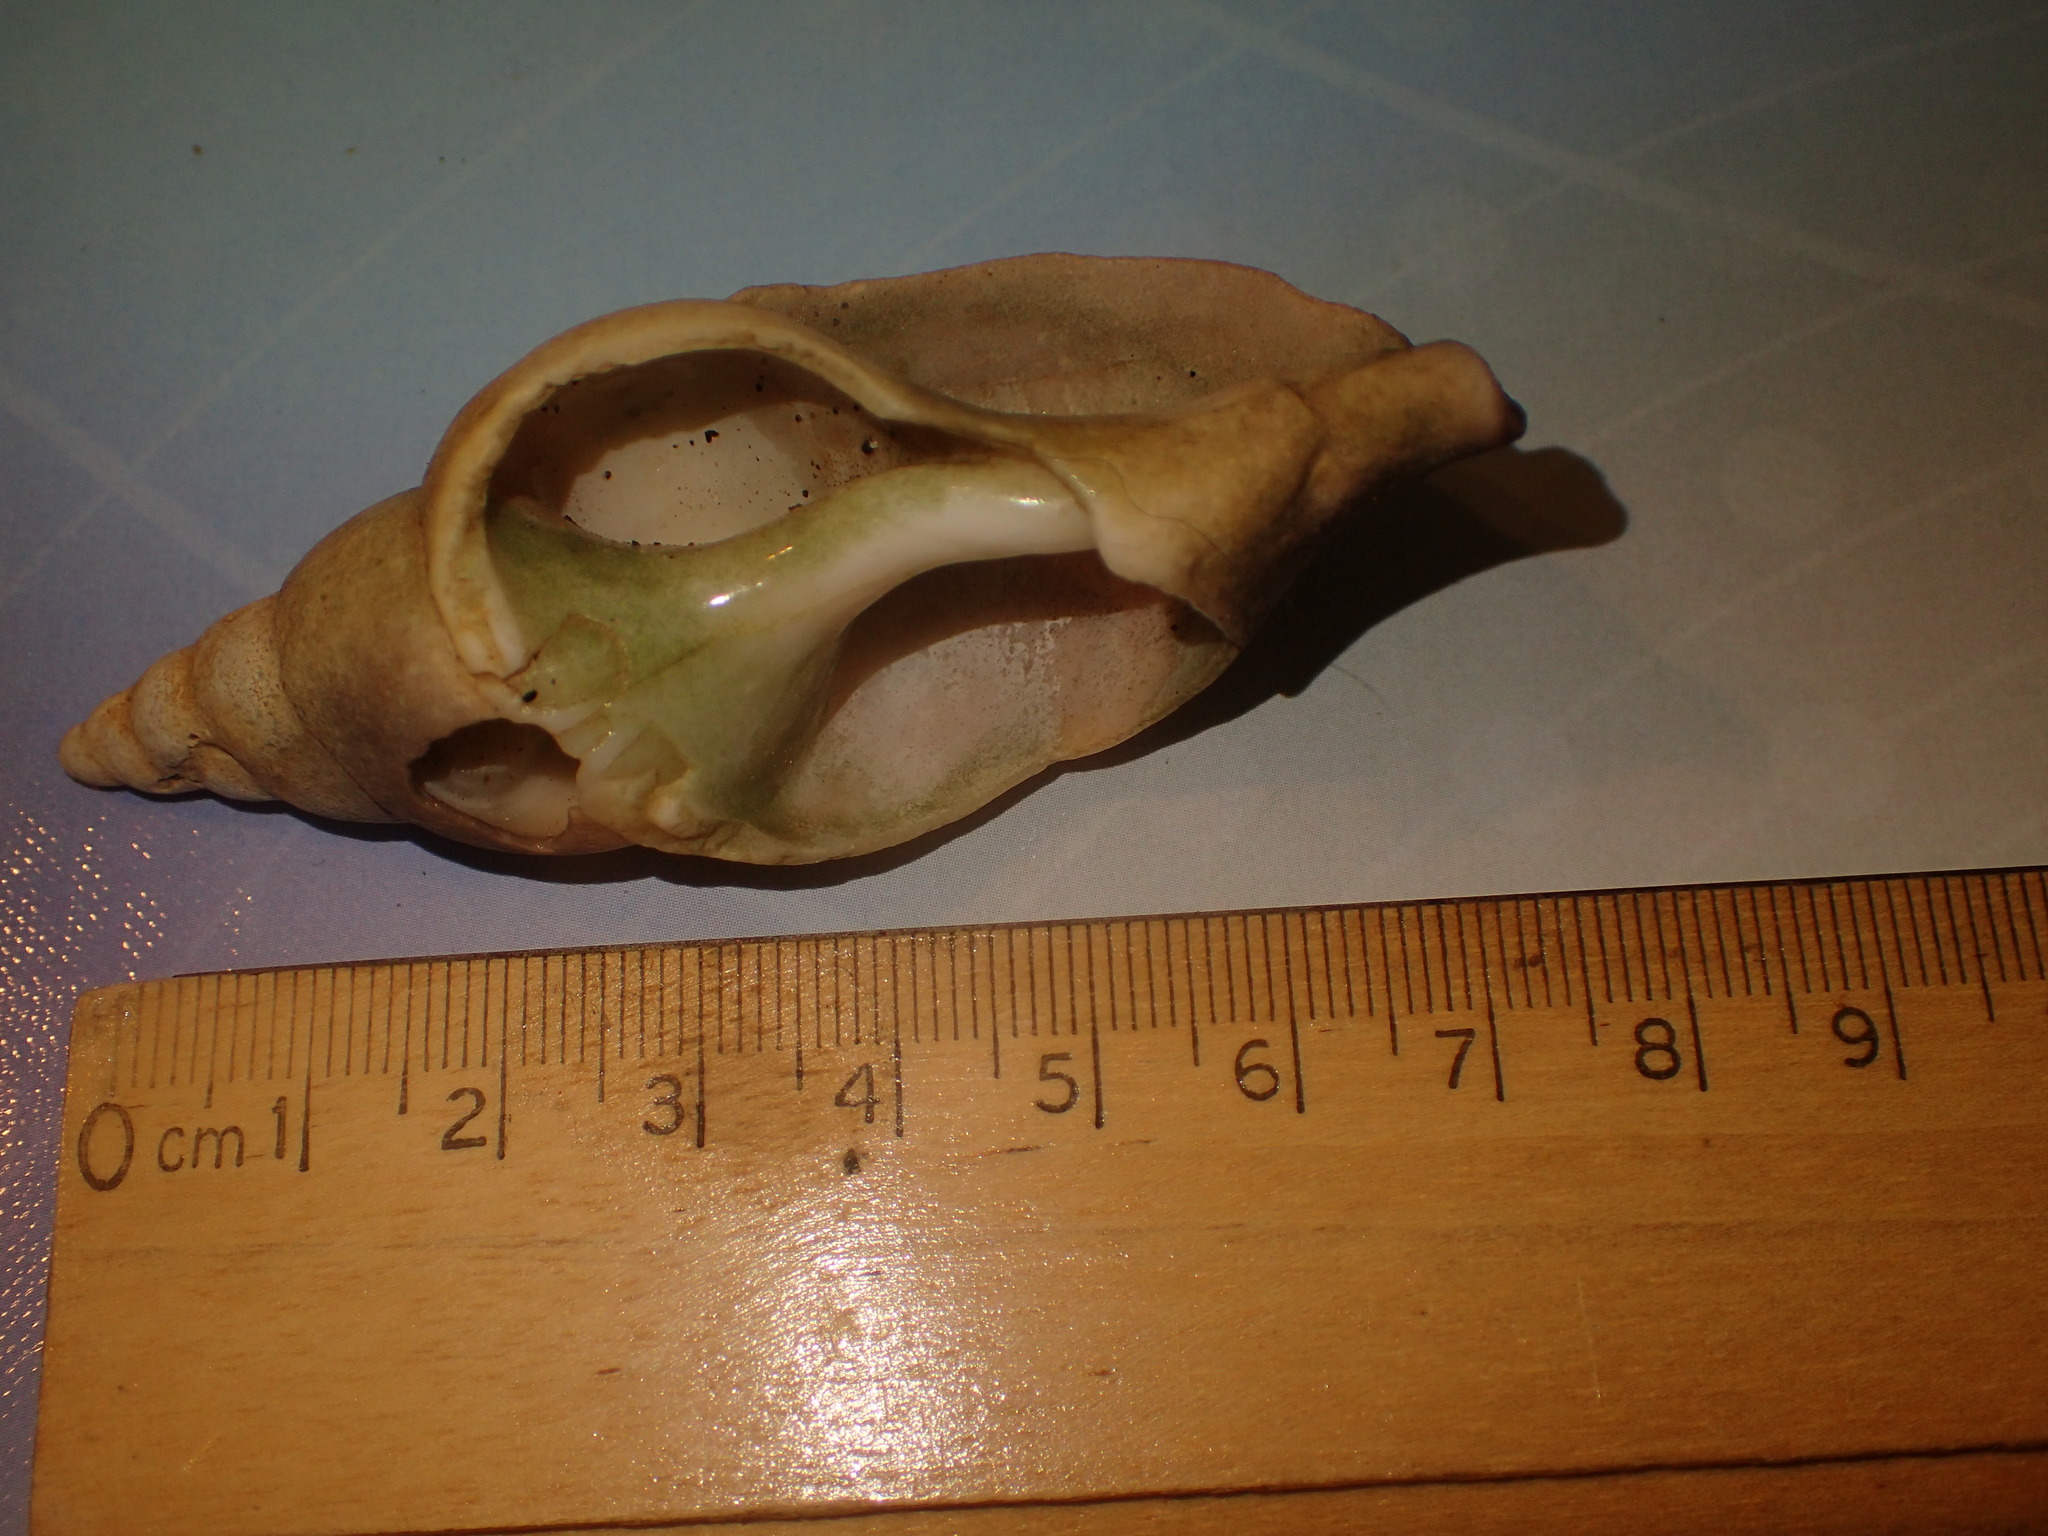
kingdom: Animalia
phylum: Mollusca
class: Gastropoda
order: Neogastropoda
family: Colidae
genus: Colus
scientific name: Colus stimpsoni
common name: Stimpson's colus
